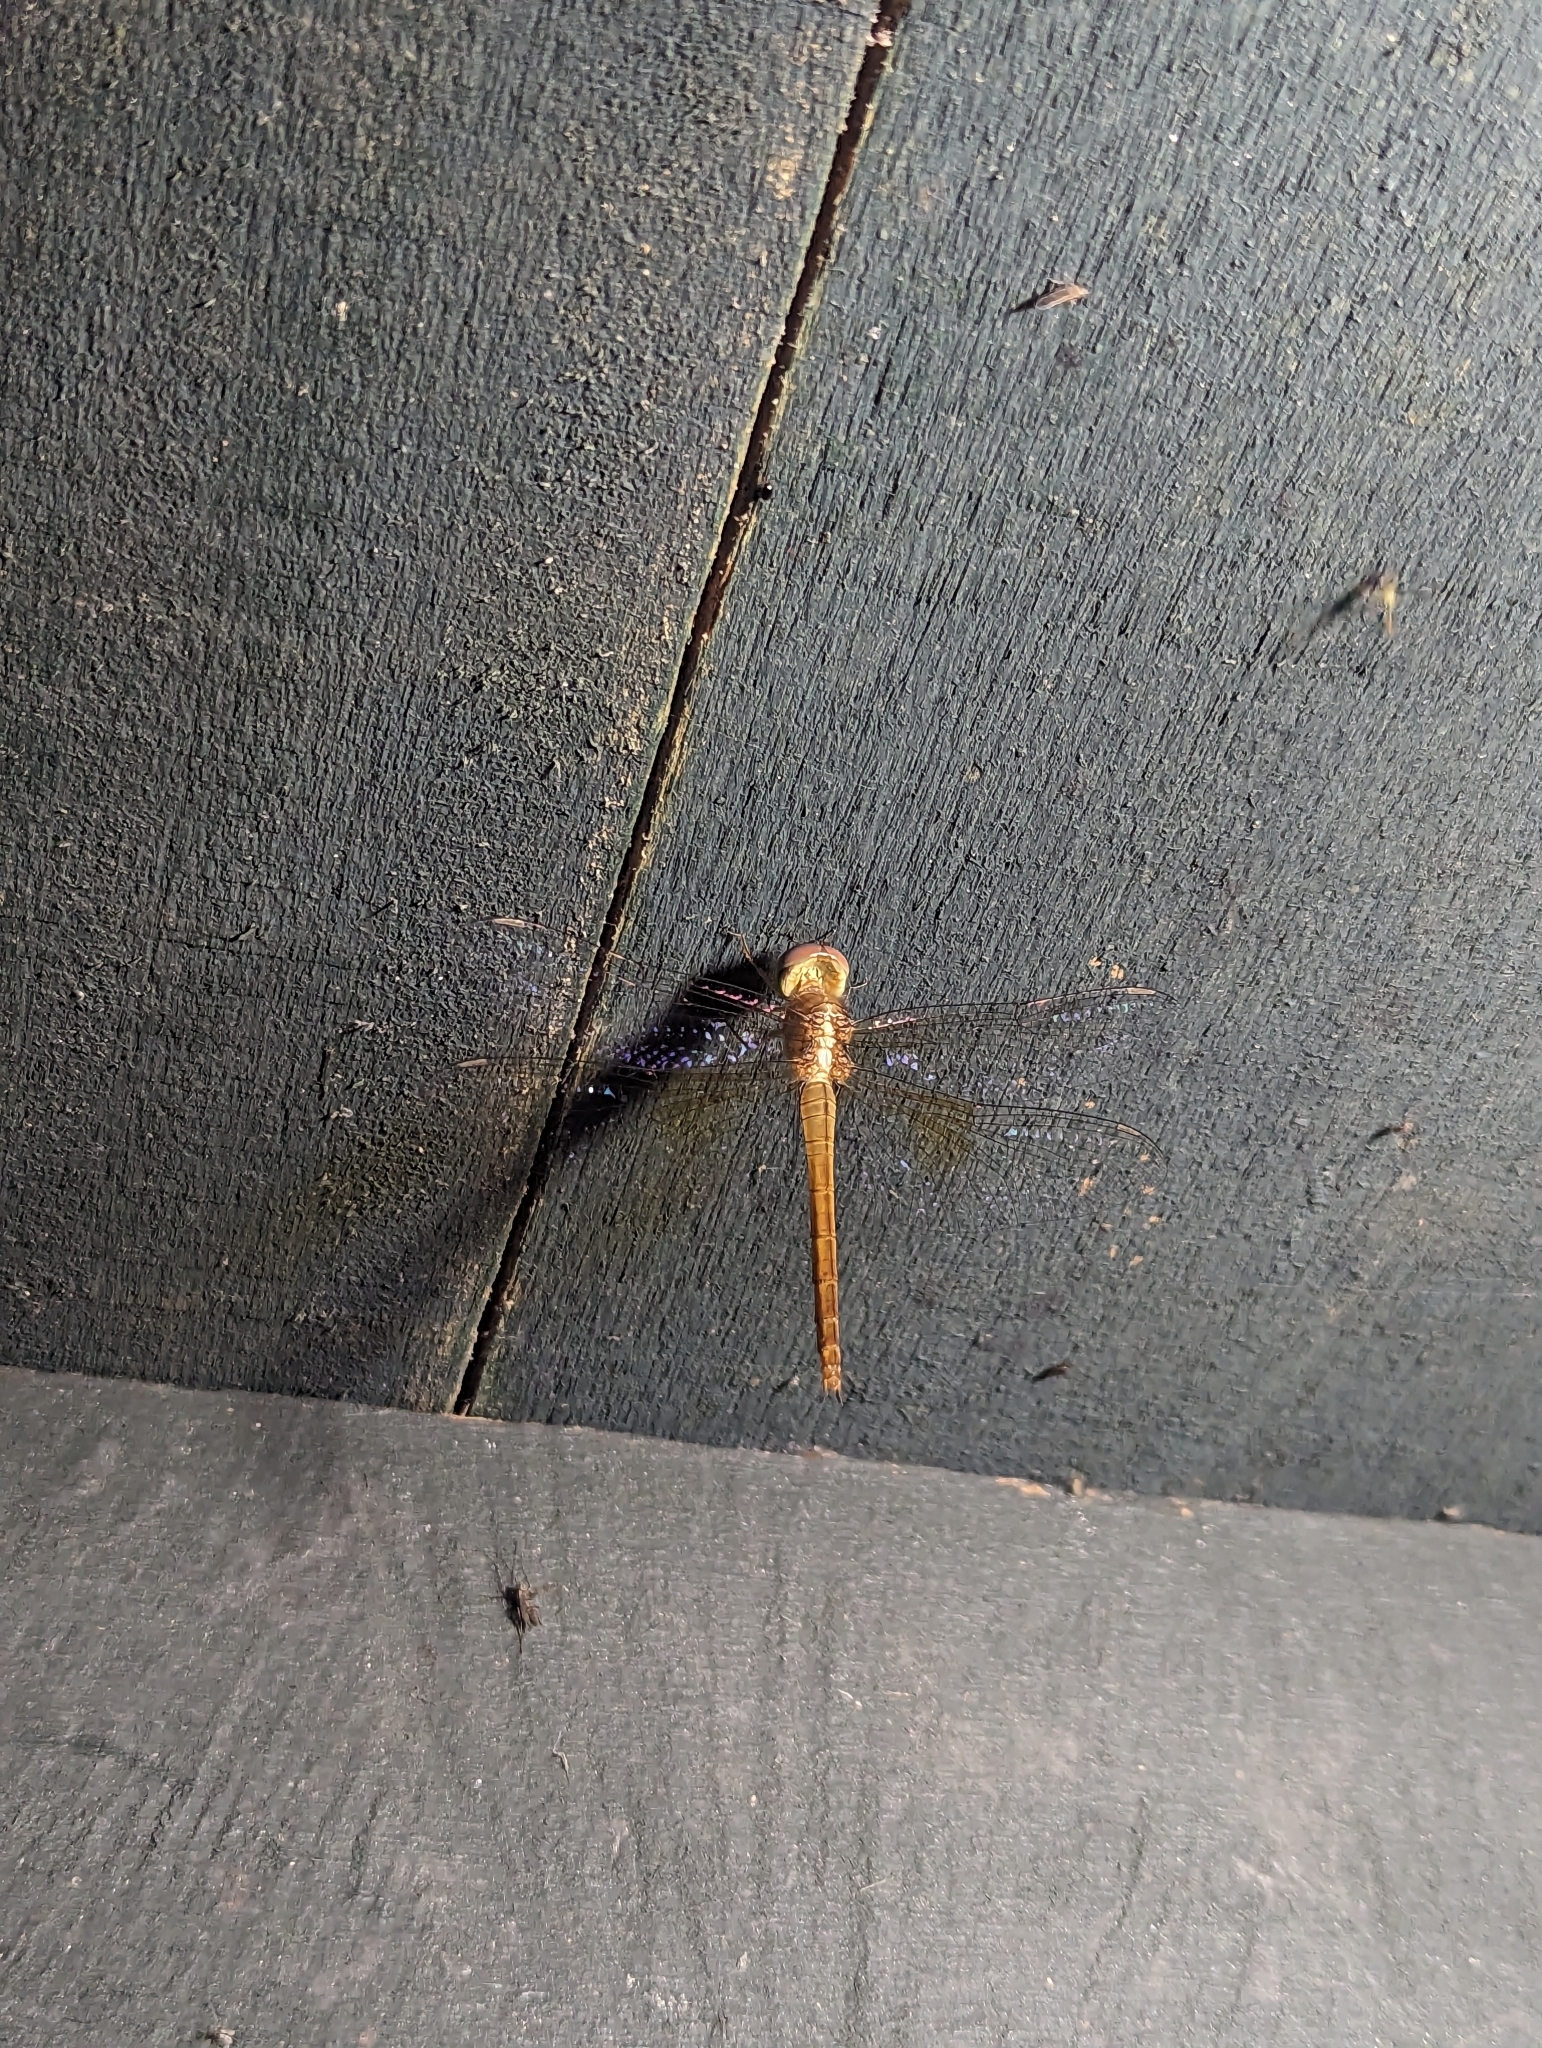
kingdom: Animalia
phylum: Arthropoda
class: Insecta
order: Odonata
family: Libellulidae
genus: Tholymis
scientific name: Tholymis tillarga
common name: Coral-tailed cloud wing
